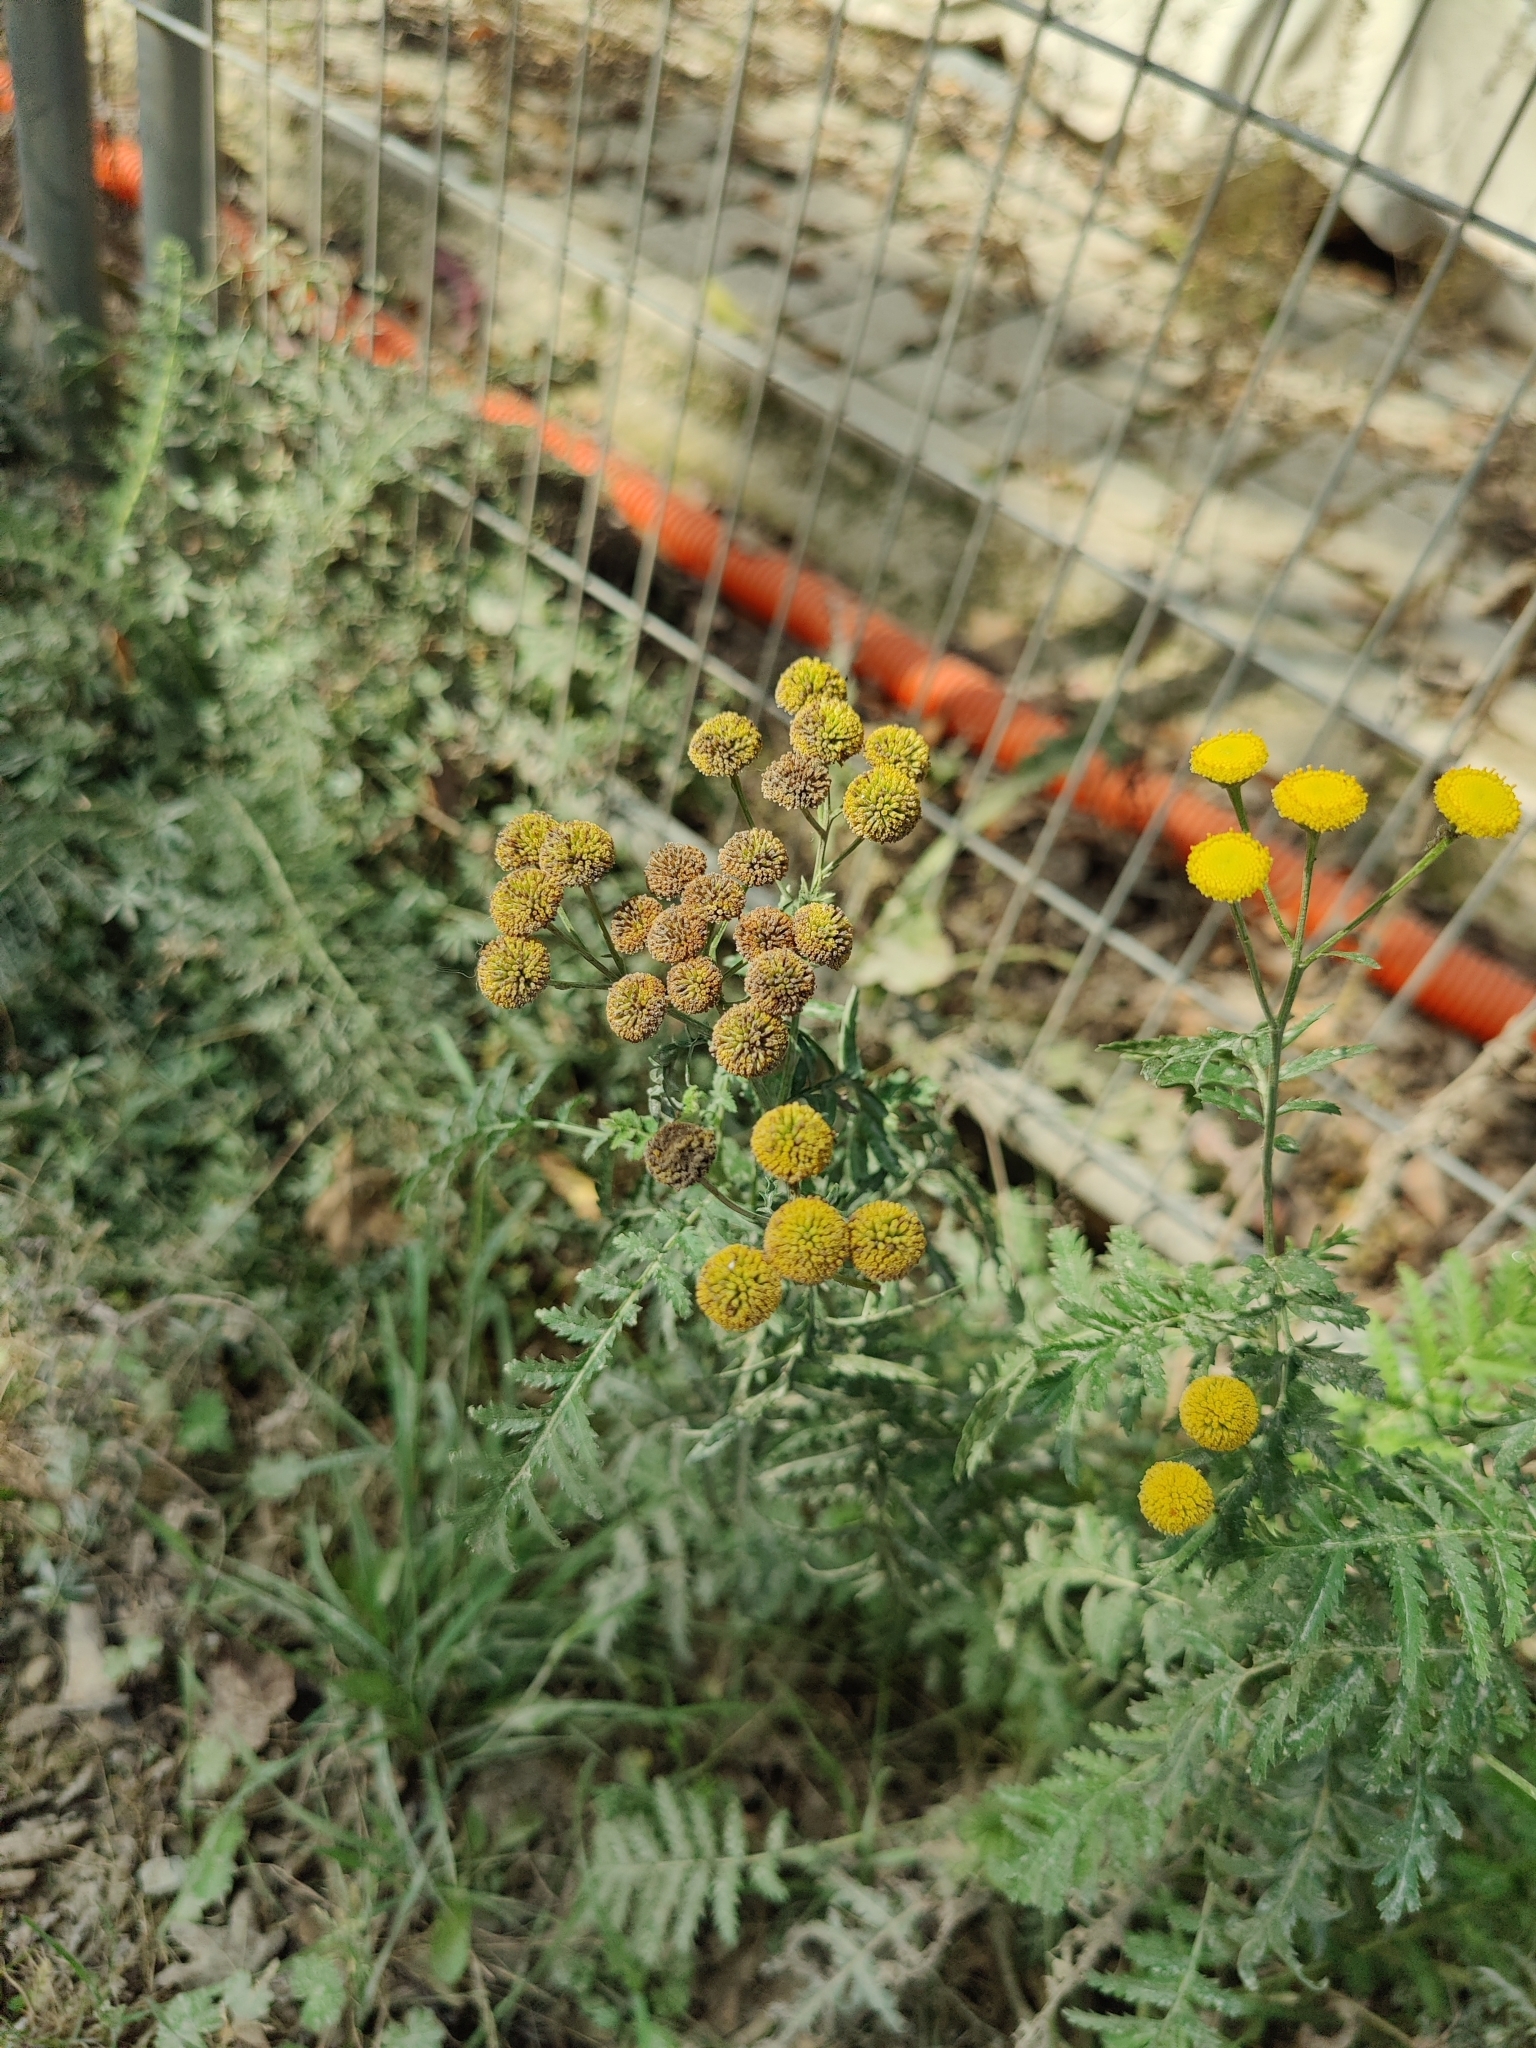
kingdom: Plantae
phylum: Tracheophyta
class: Magnoliopsida
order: Asterales
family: Asteraceae
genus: Tanacetum
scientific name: Tanacetum vulgare
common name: Common tansy
